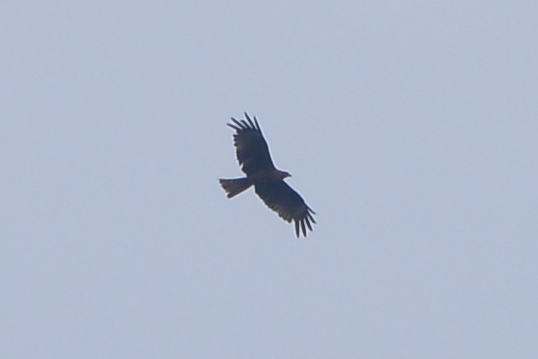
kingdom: Animalia
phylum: Chordata
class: Aves
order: Accipitriformes
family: Accipitridae
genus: Milvus
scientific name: Milvus migrans
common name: Black kite
